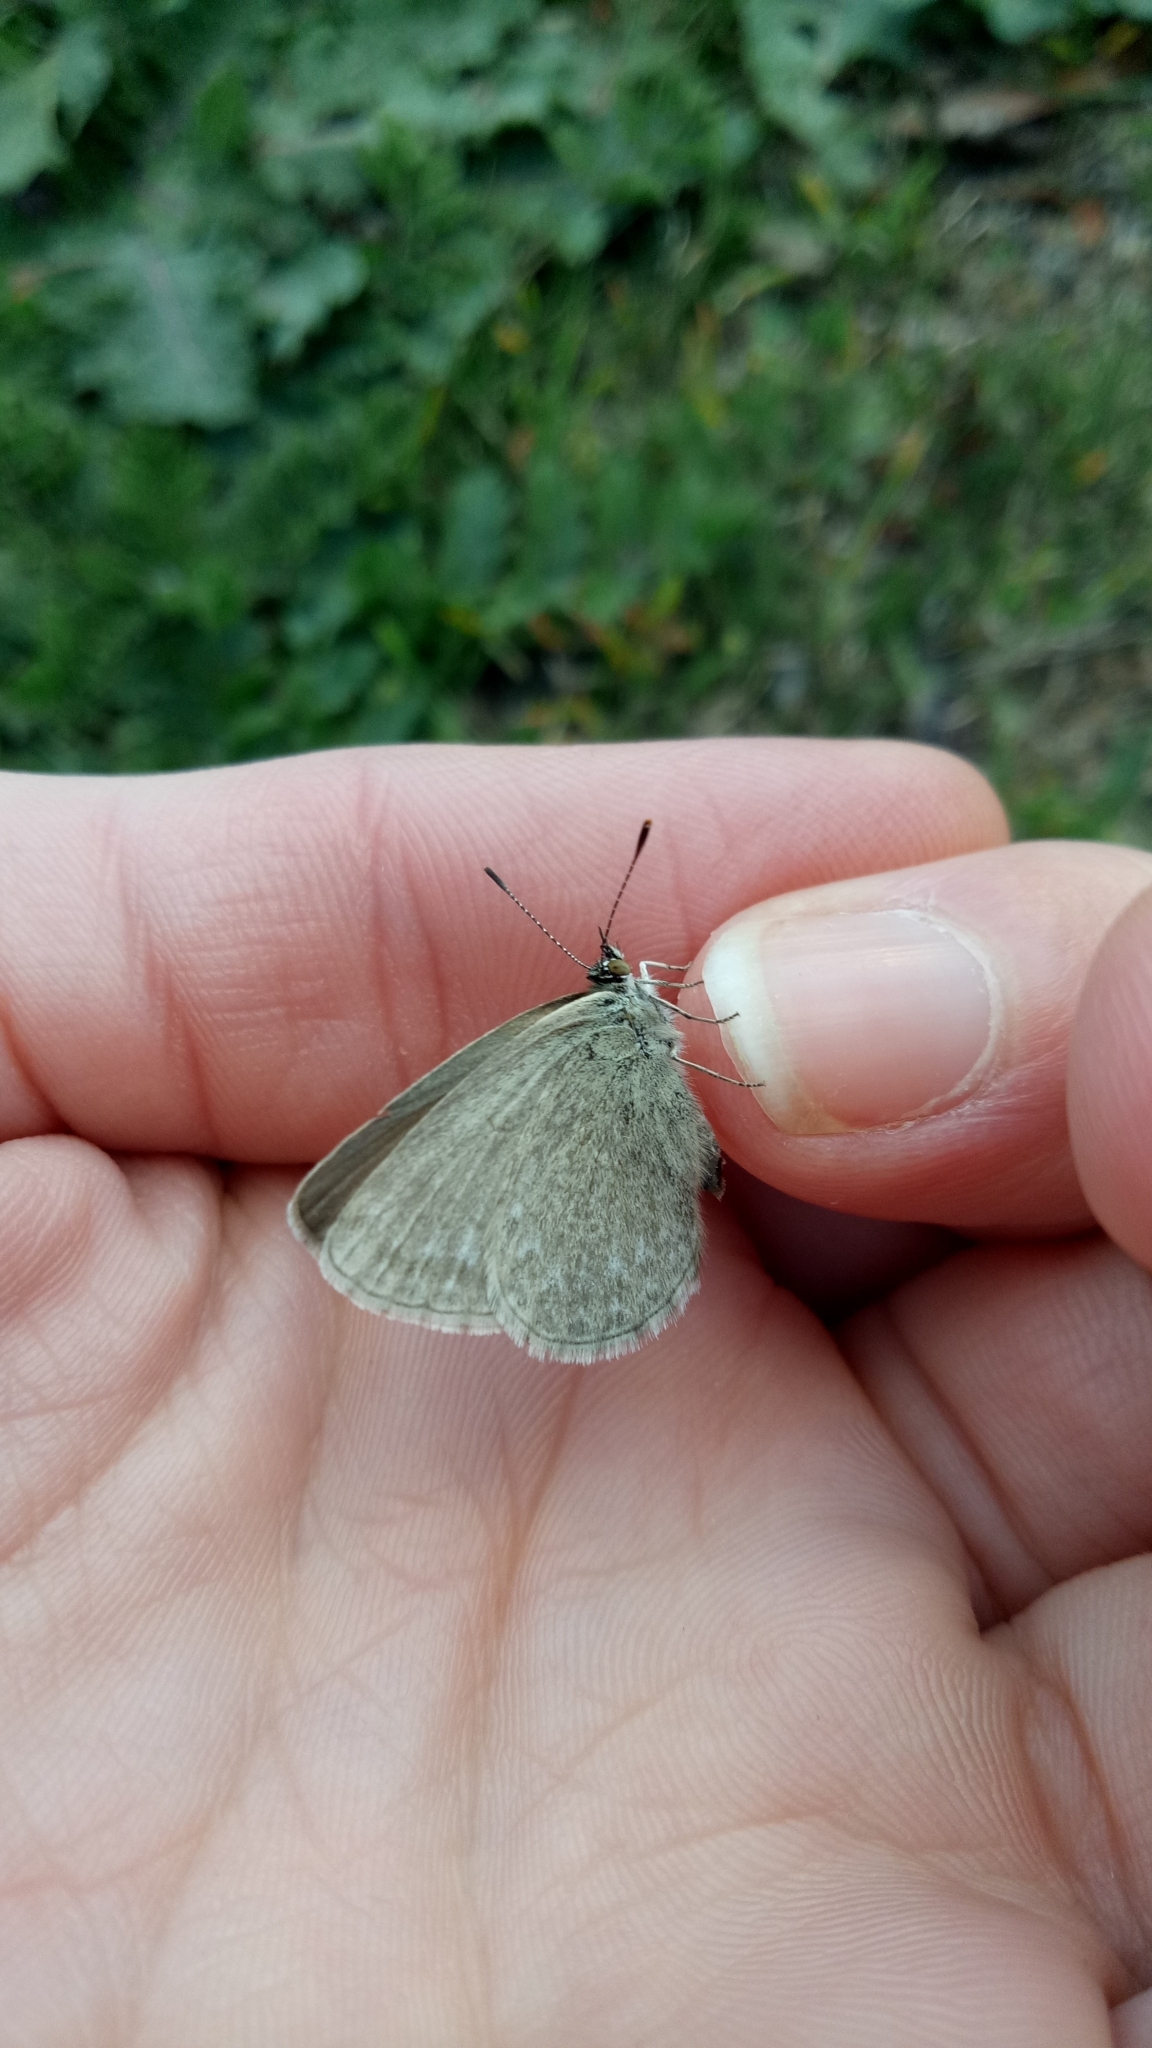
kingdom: Animalia
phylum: Arthropoda
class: Insecta
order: Lepidoptera
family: Lycaenidae
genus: Zizina
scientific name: Zizina labradus
